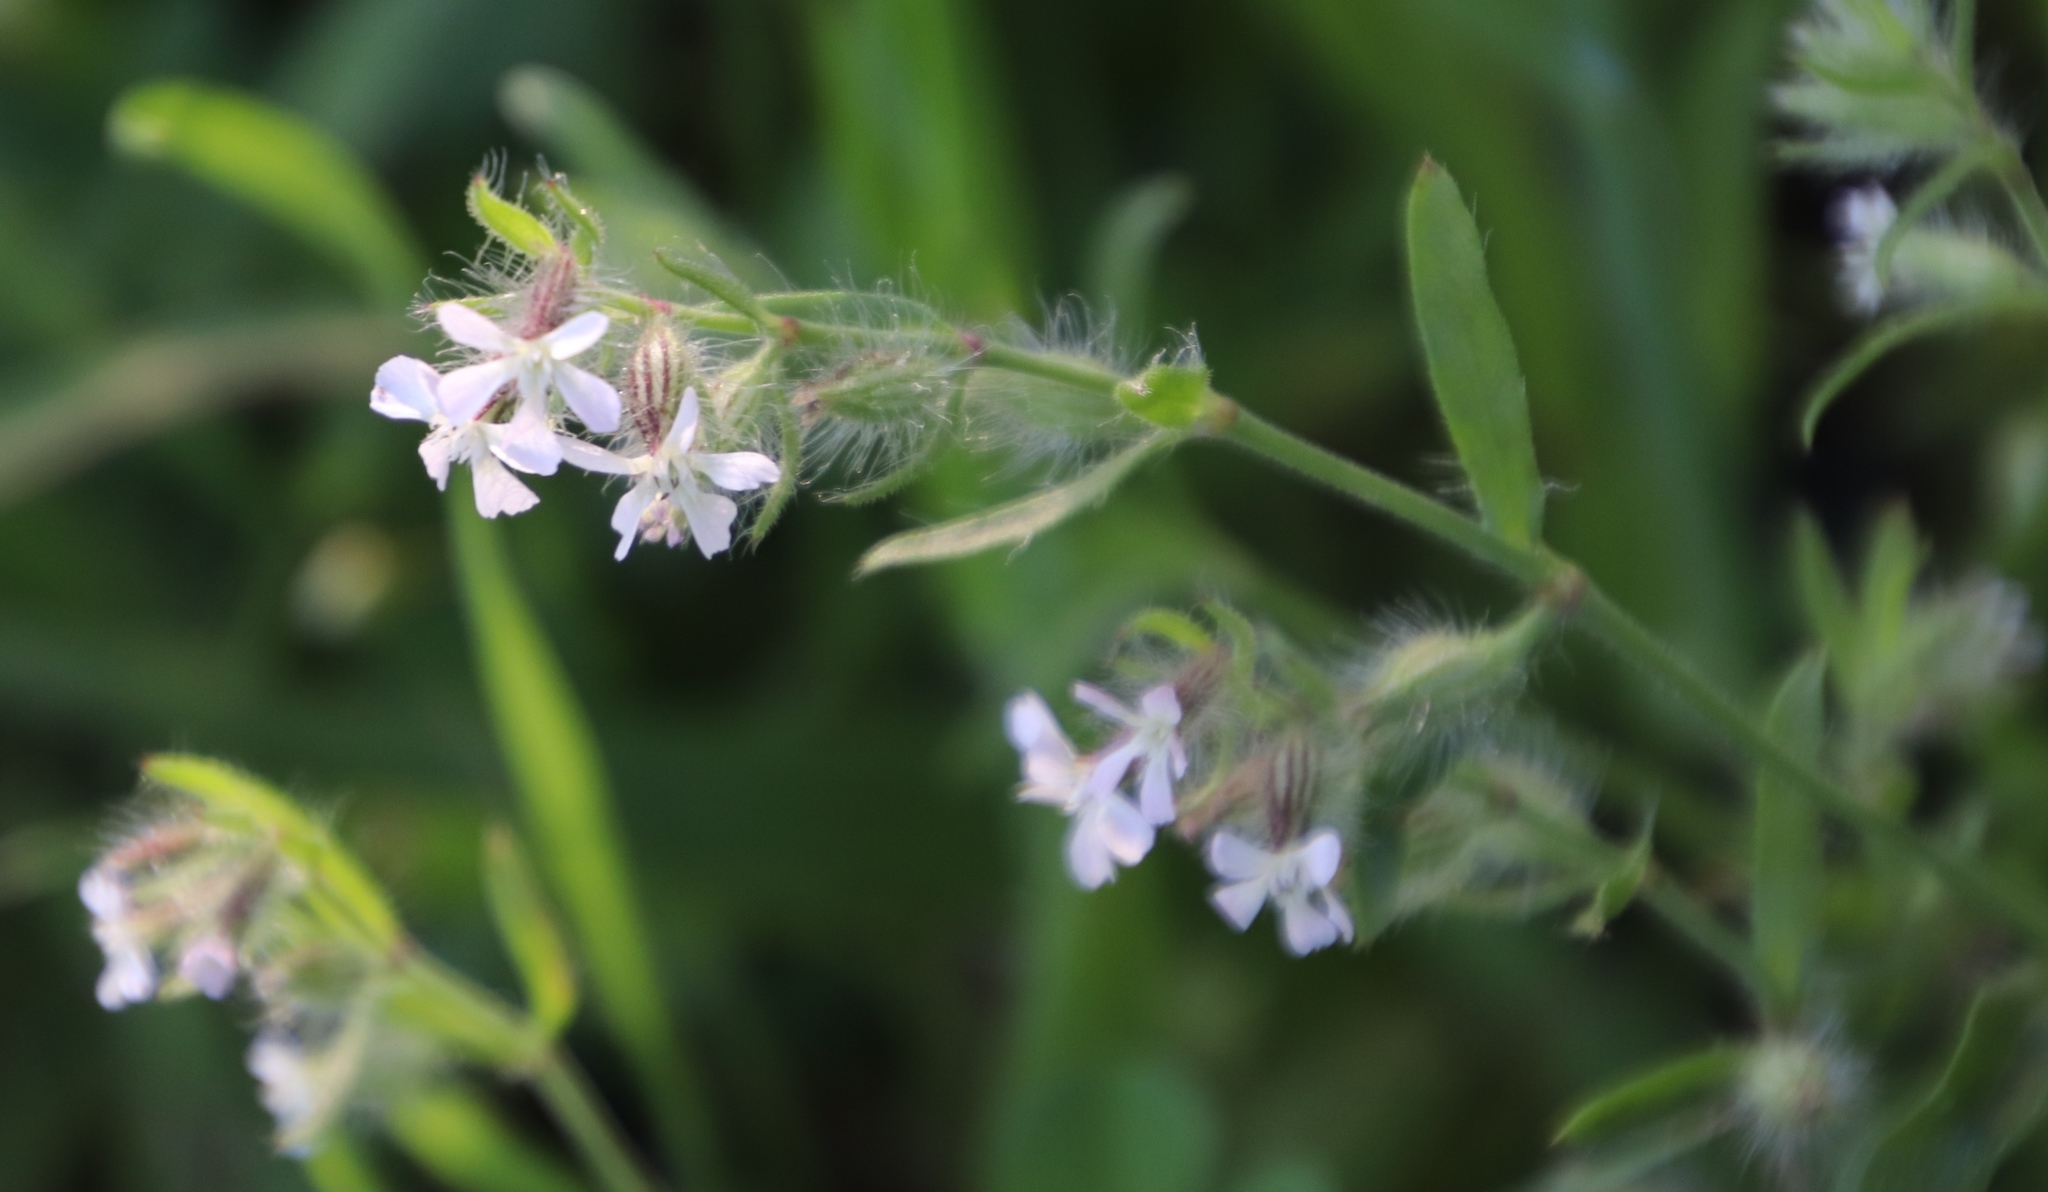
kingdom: Plantae
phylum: Tracheophyta
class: Magnoliopsida
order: Caryophyllales
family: Caryophyllaceae
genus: Silene
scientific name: Silene gallica
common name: Small-flowered catchfly
